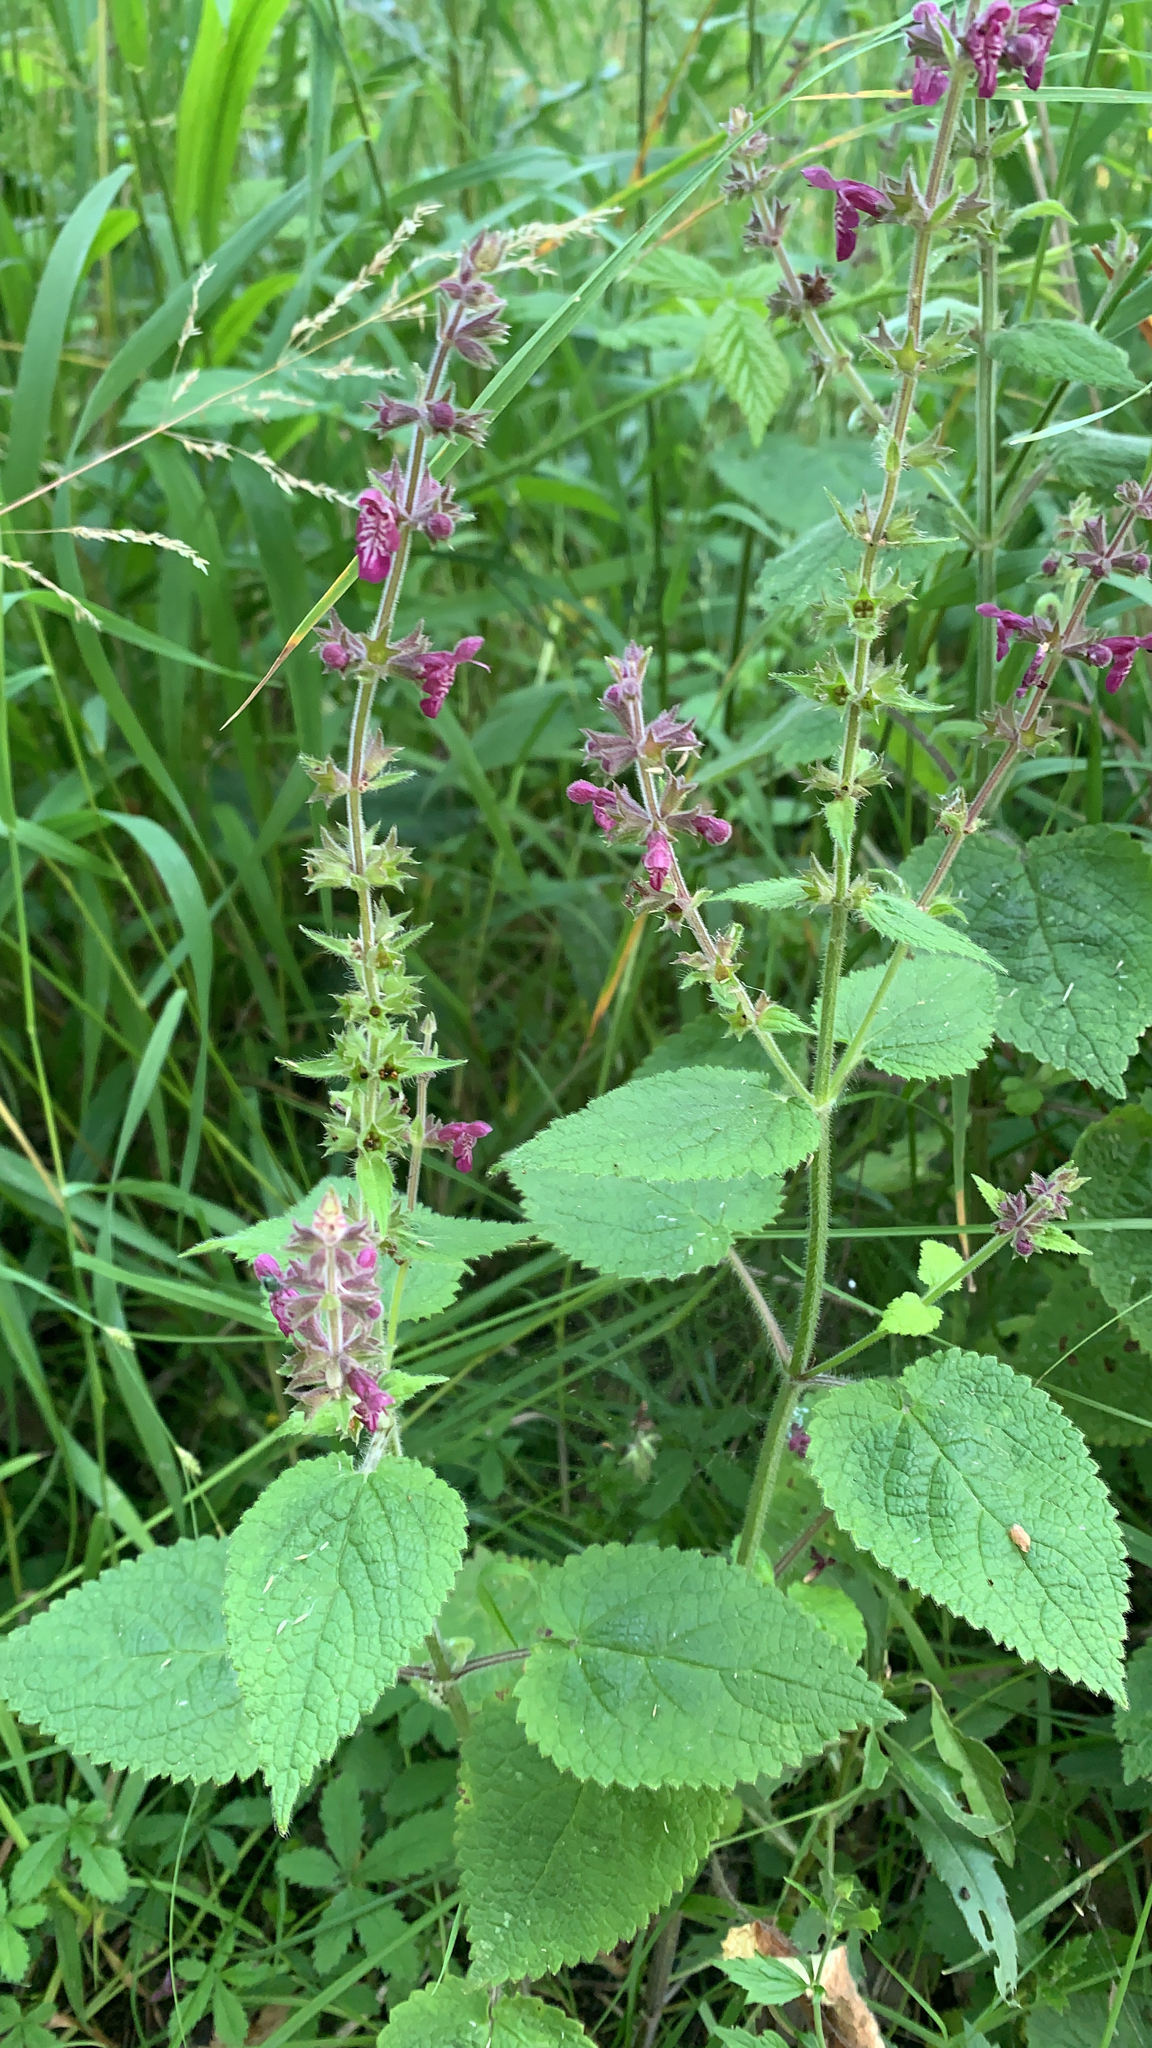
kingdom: Plantae
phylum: Tracheophyta
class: Magnoliopsida
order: Lamiales
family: Lamiaceae
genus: Stachys
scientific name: Stachys sylvatica
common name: Hedge woundwort
